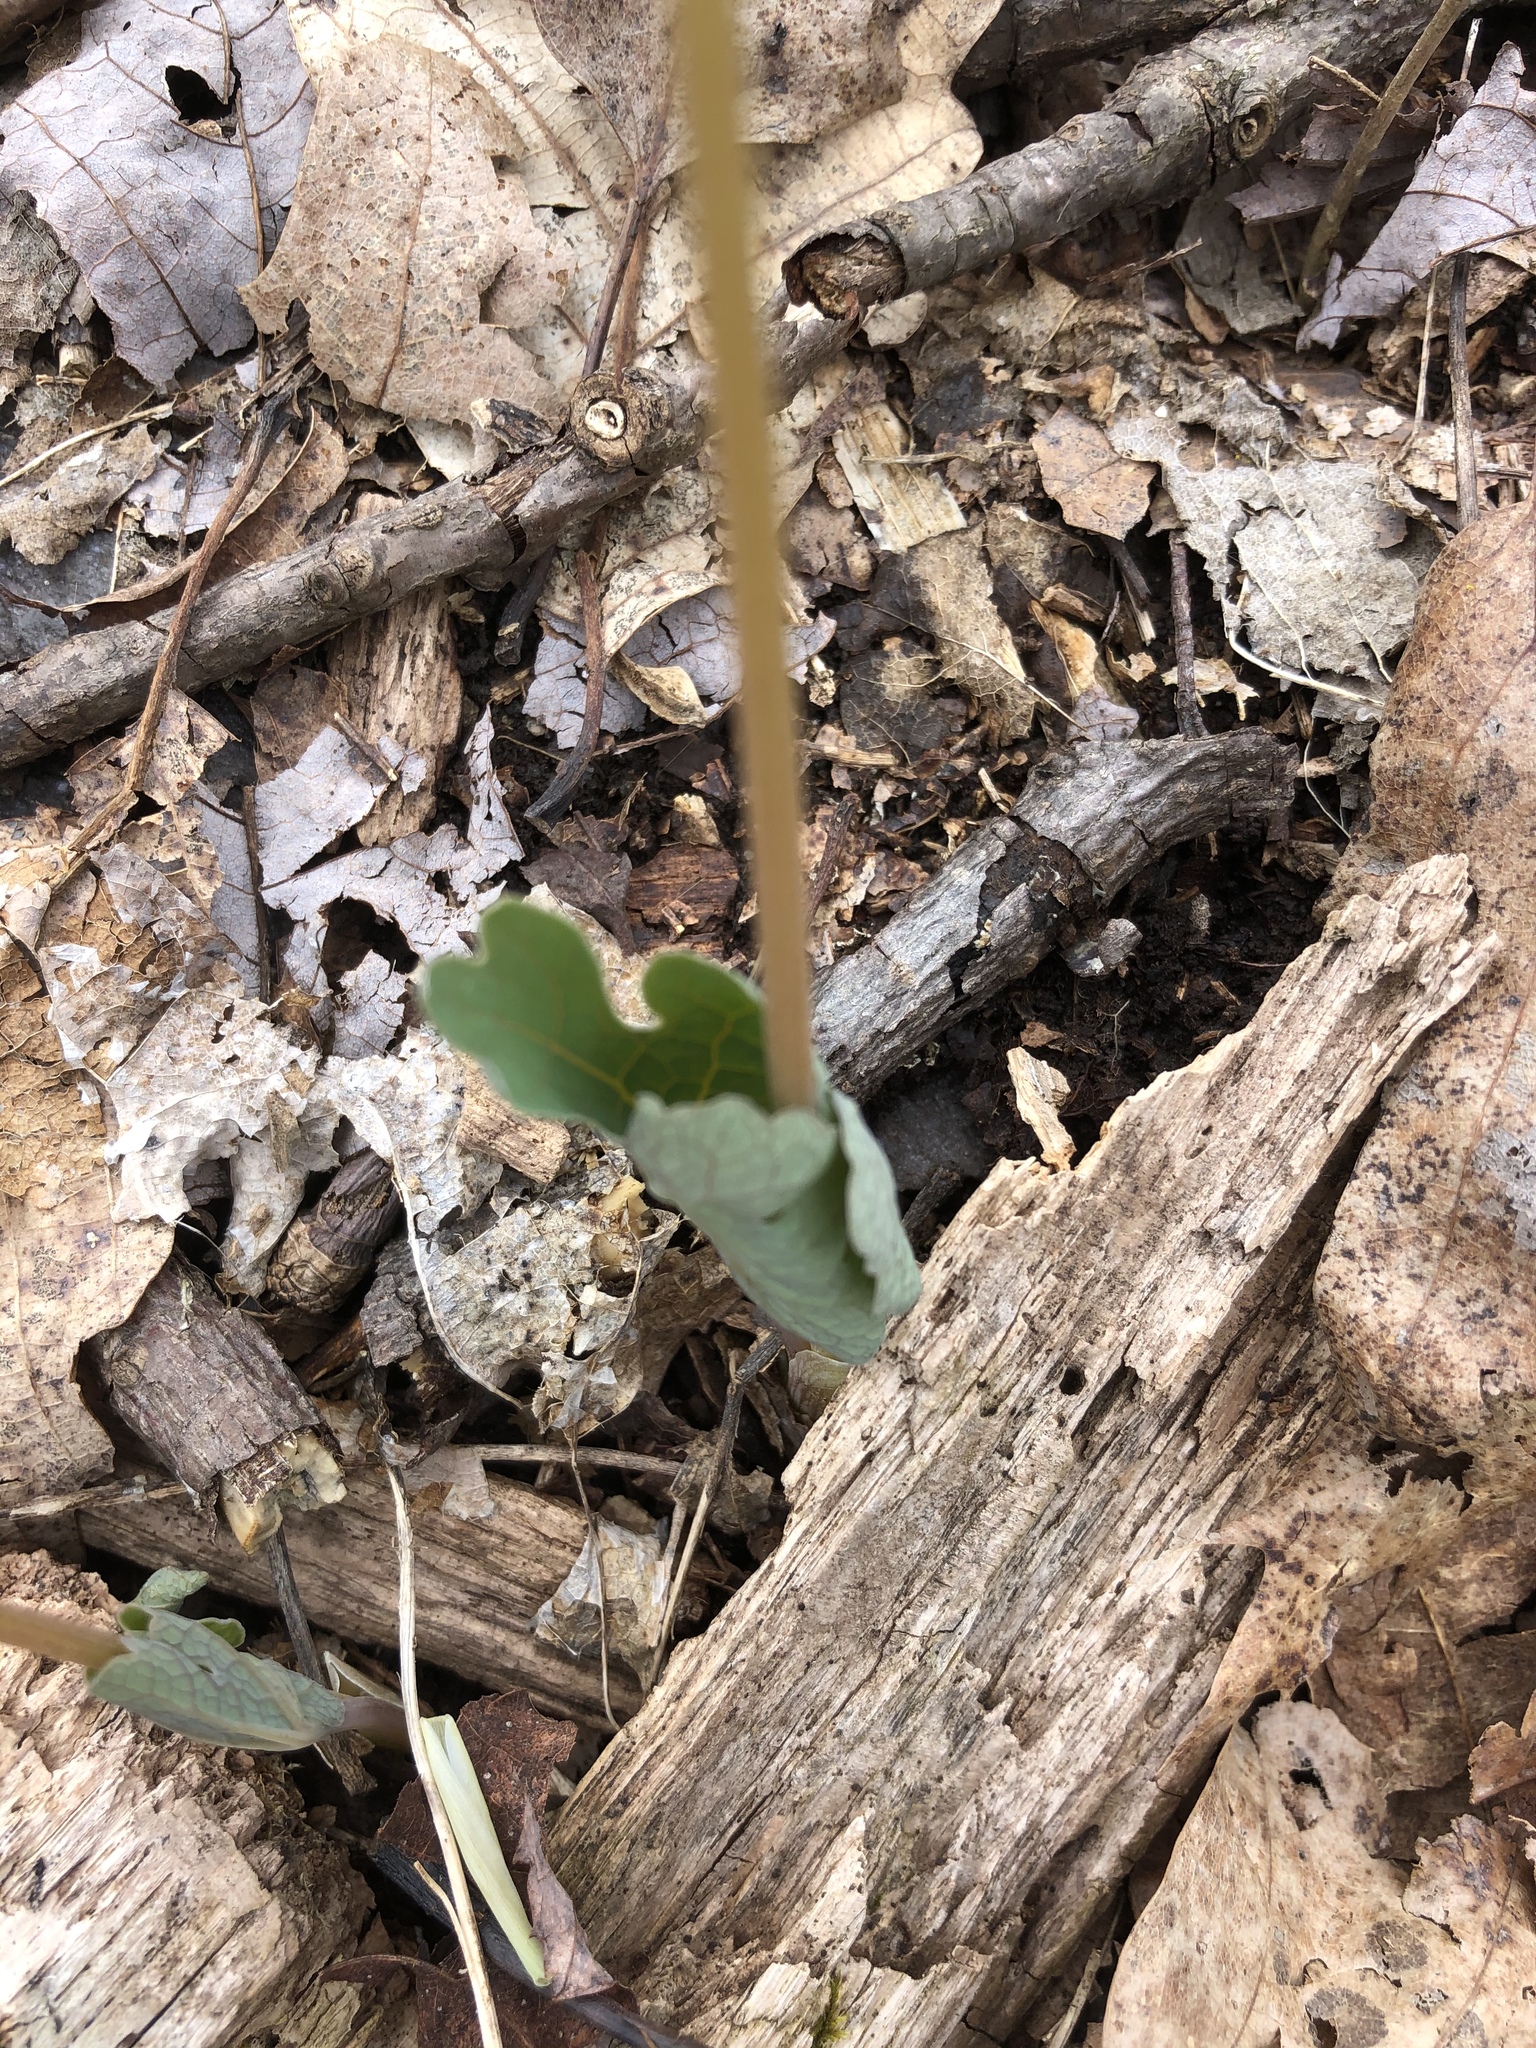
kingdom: Plantae
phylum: Tracheophyta
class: Magnoliopsida
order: Ranunculales
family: Papaveraceae
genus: Sanguinaria
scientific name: Sanguinaria canadensis
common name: Bloodroot
